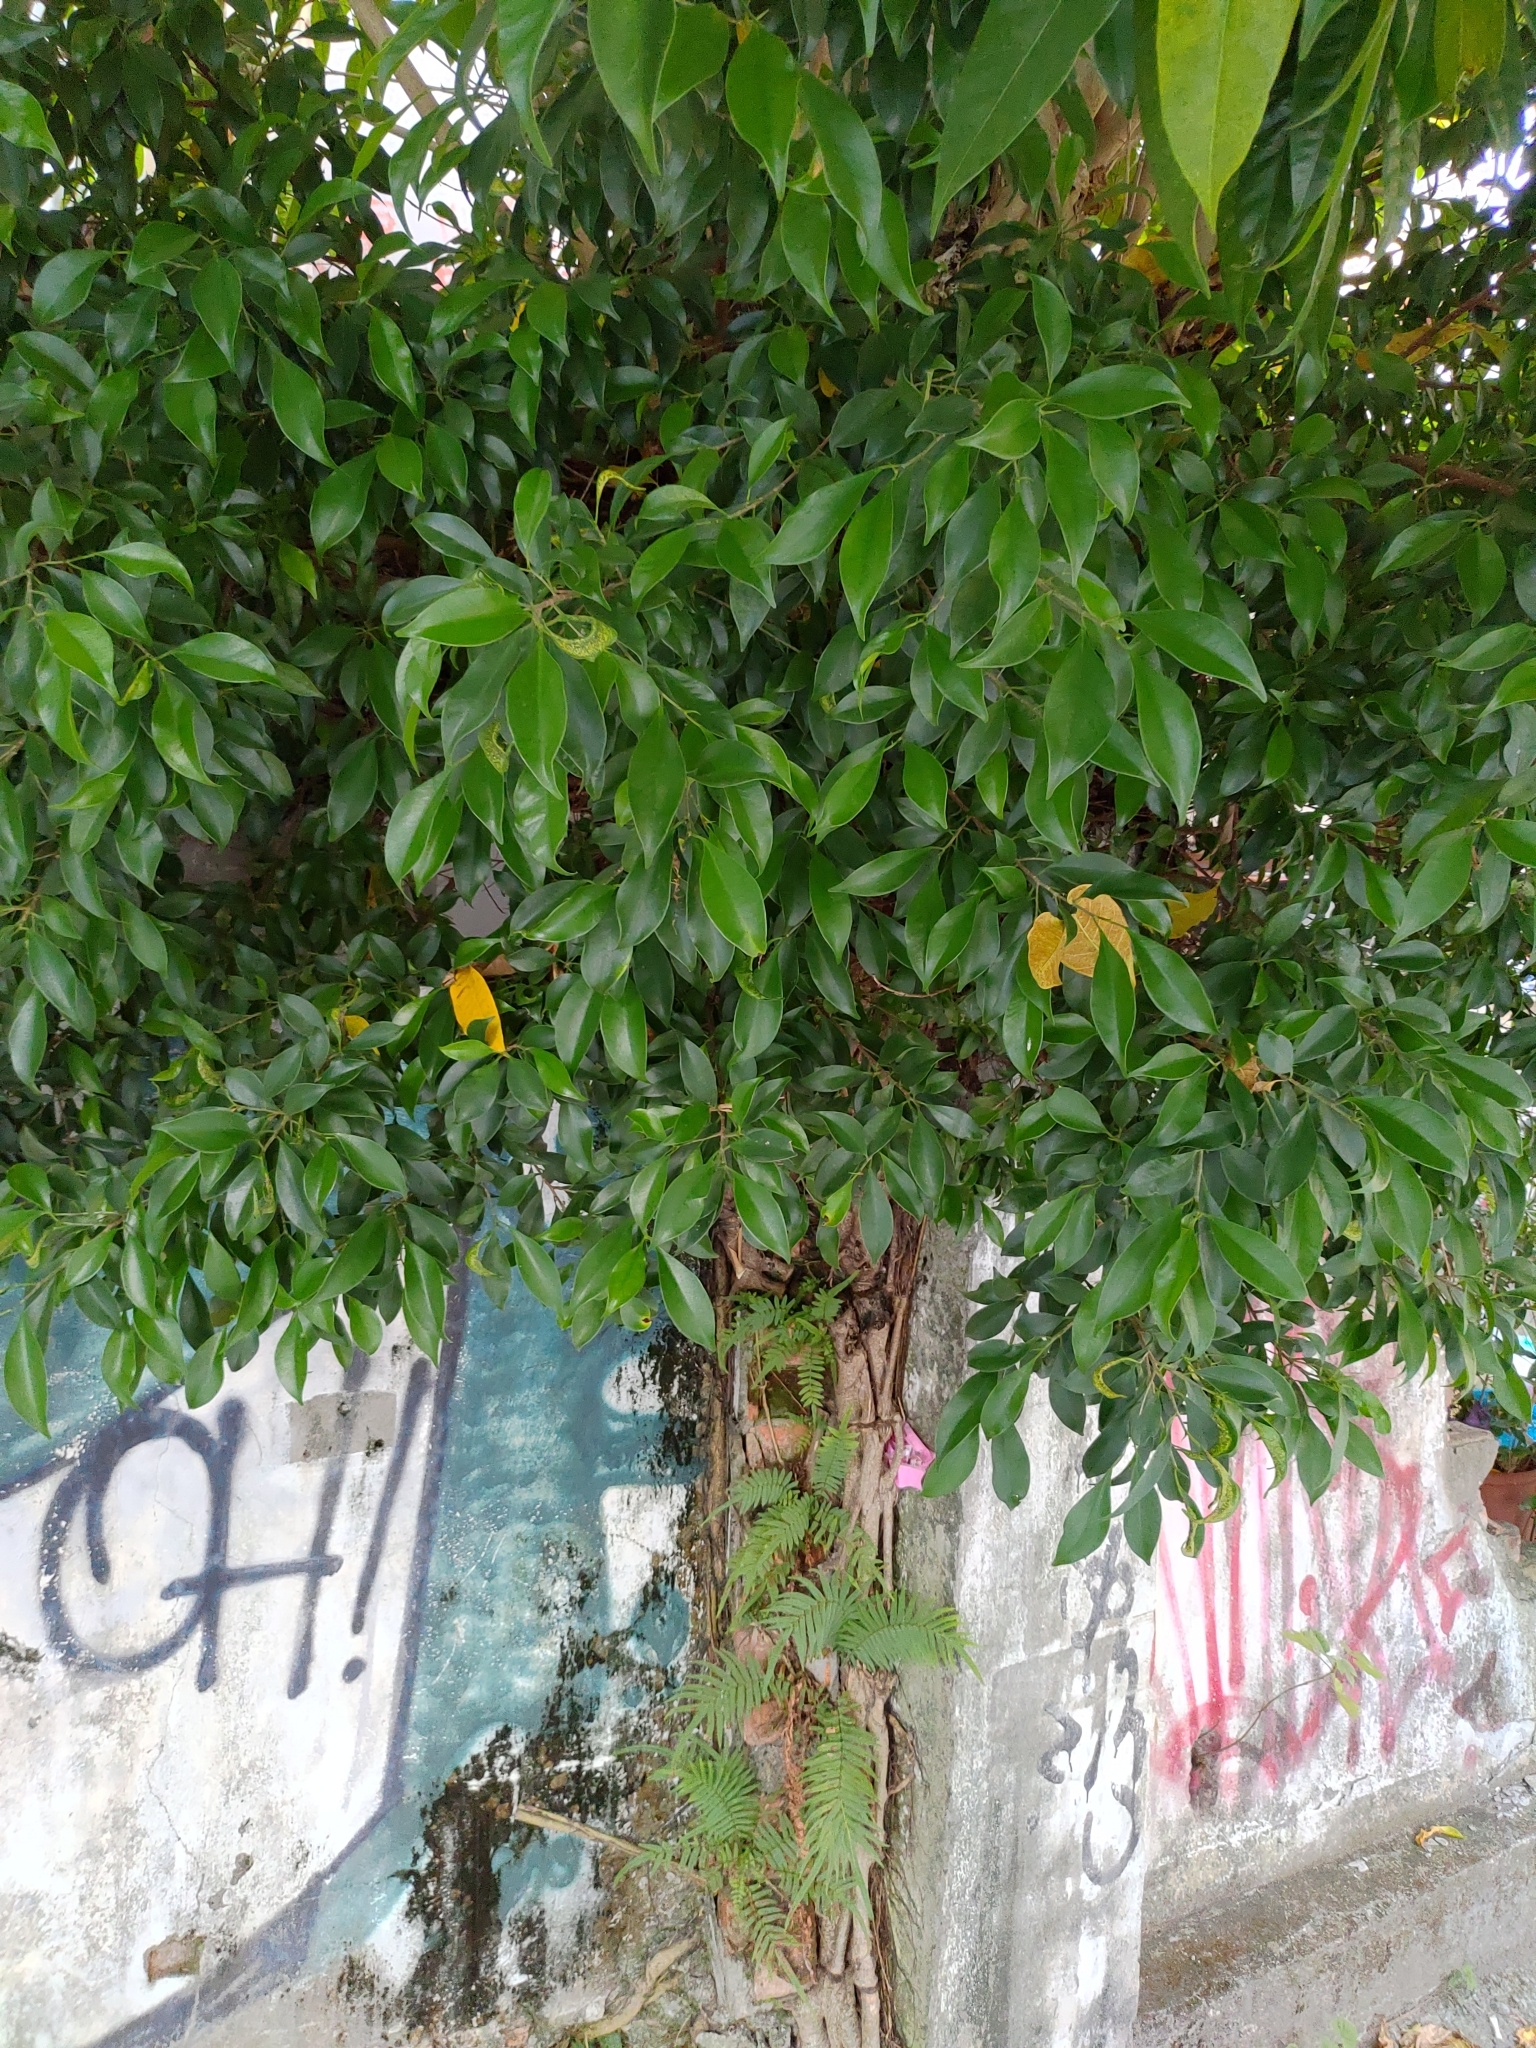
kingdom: Plantae
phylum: Tracheophyta
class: Magnoliopsida
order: Rosales
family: Moraceae
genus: Ficus
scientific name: Ficus microcarpa
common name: Chinese banyan
